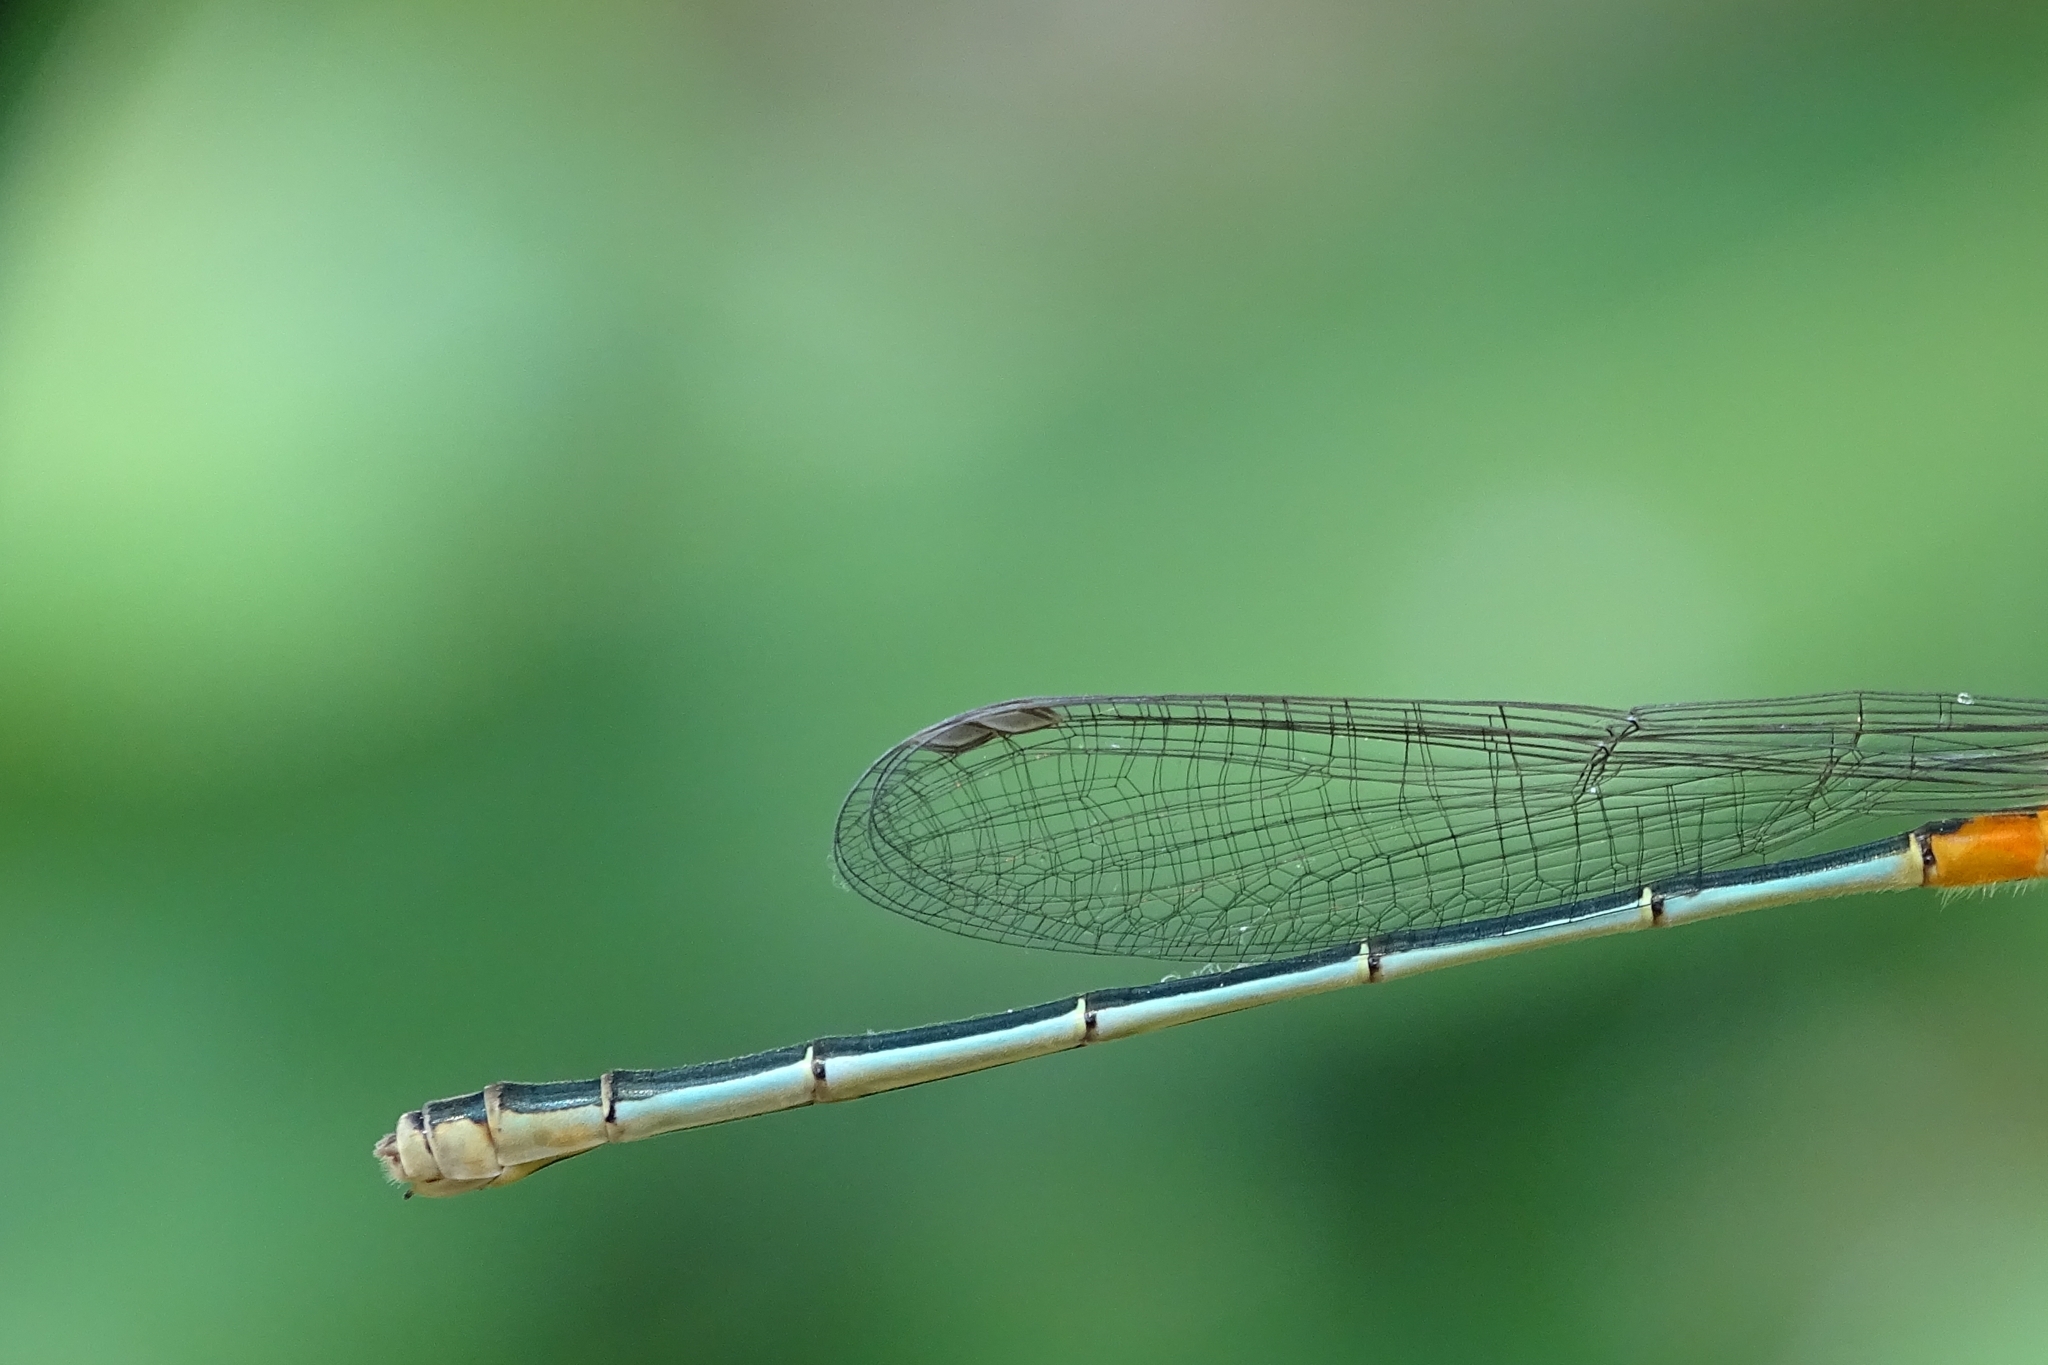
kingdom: Animalia
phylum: Arthropoda
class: Insecta
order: Odonata
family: Coenagrionidae
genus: Ischnura
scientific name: Ischnura senegalensis
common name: Tropical bluetail
